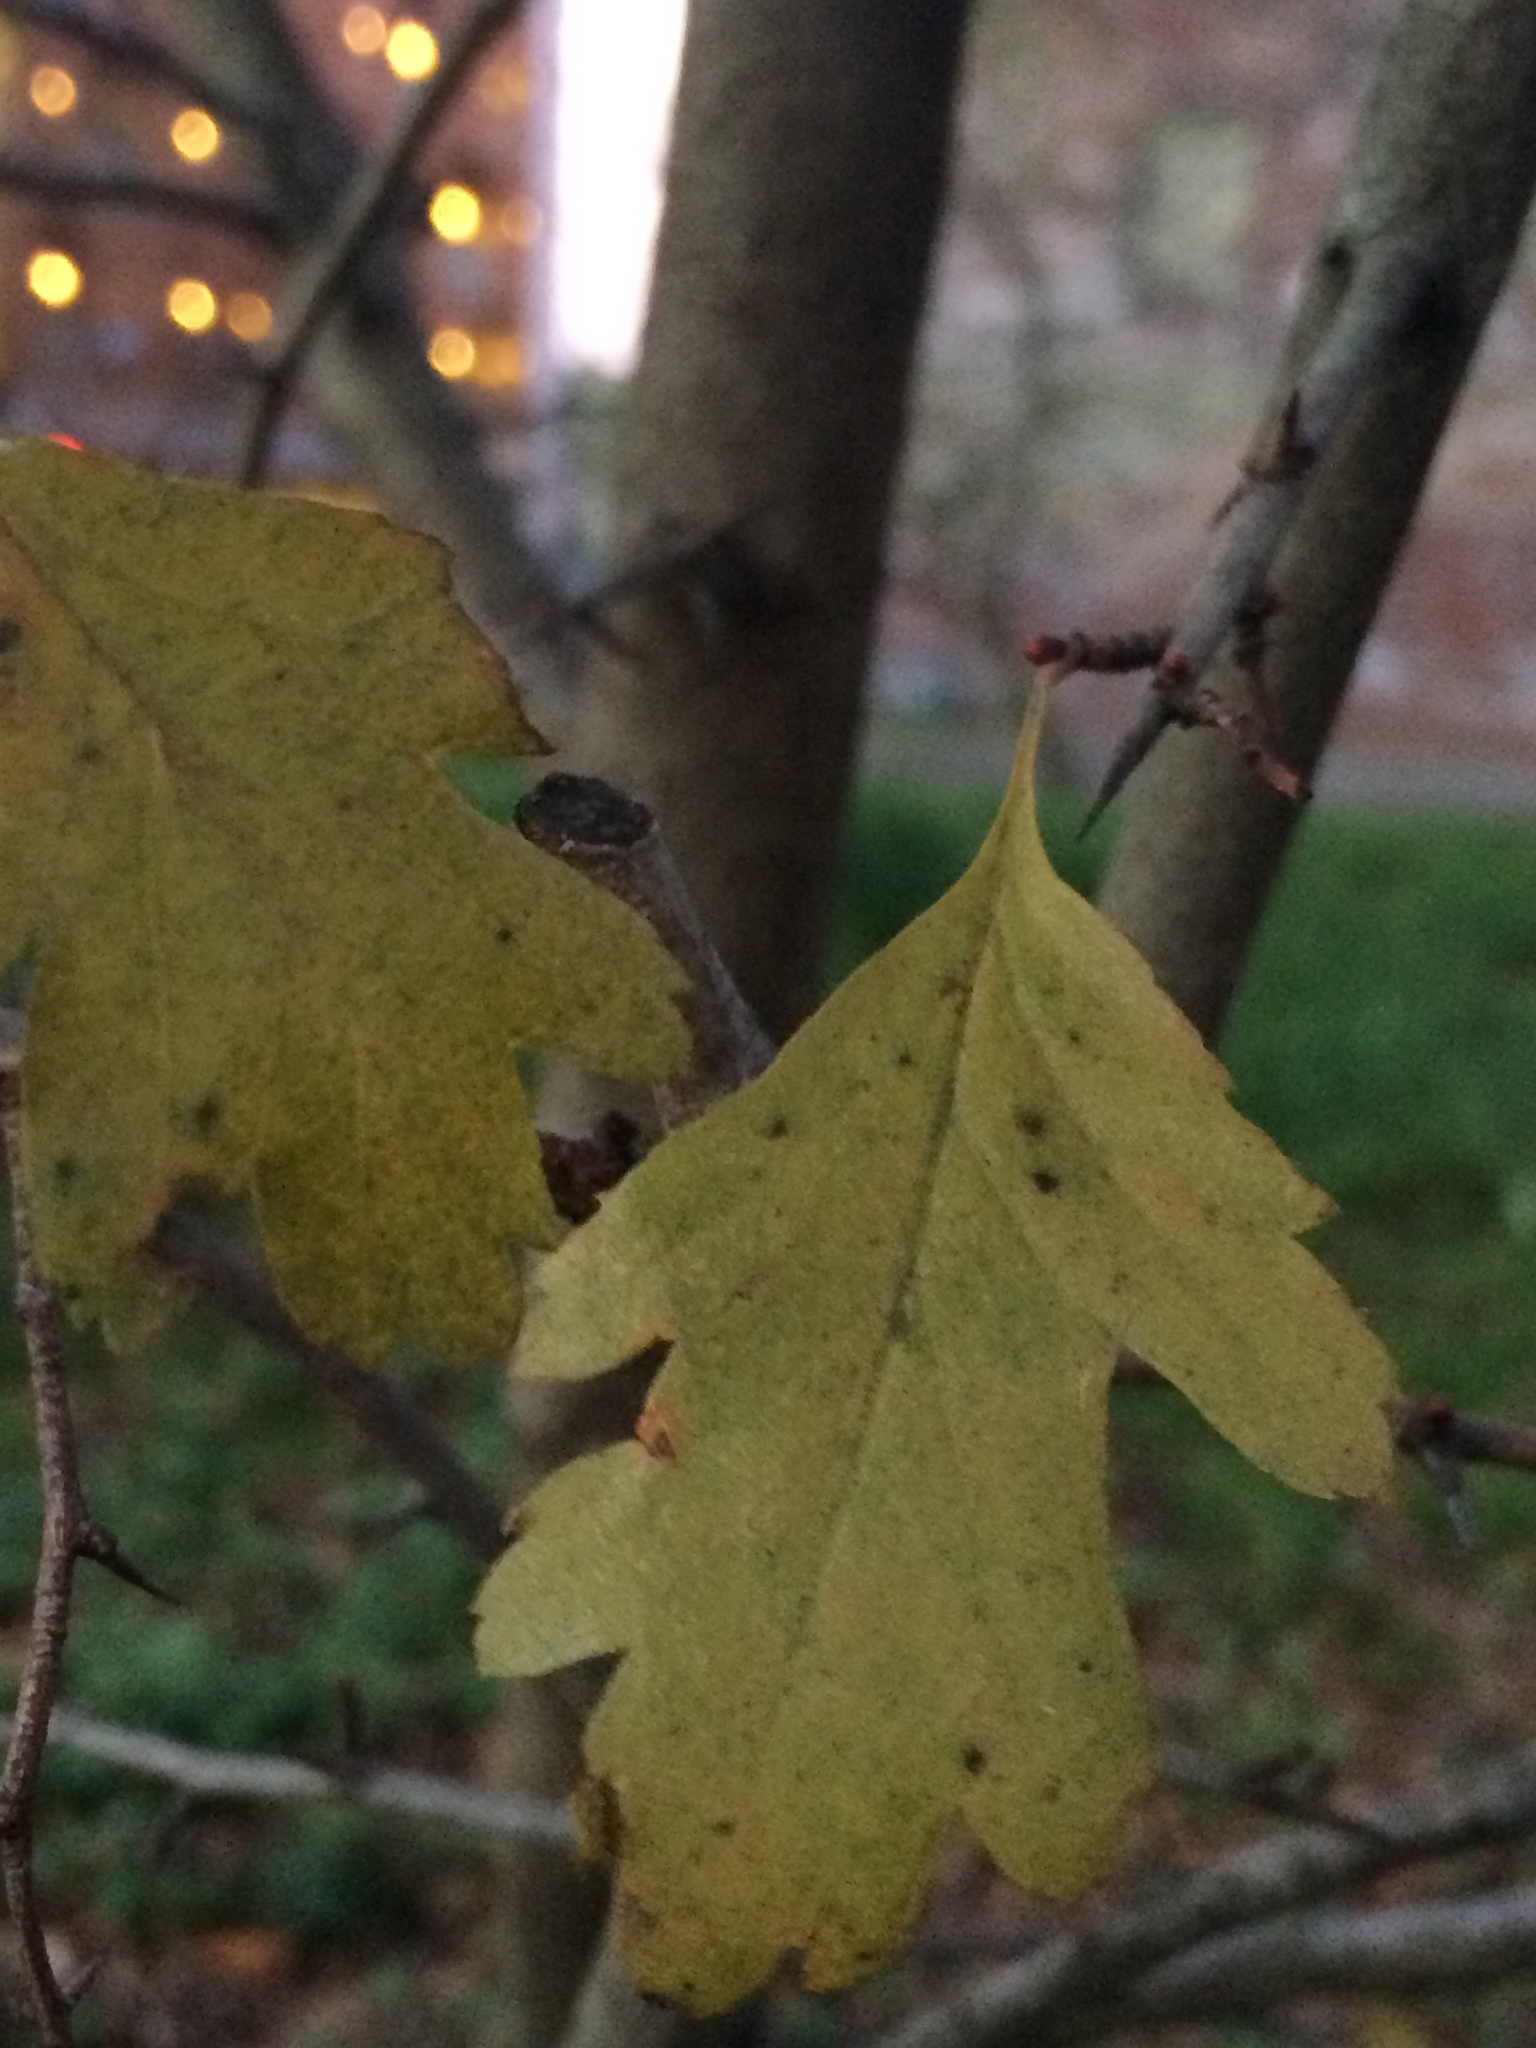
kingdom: Plantae
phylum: Tracheophyta
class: Magnoliopsida
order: Rosales
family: Rosaceae
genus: Crataegus
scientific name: Crataegus monogyna
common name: Hawthorn
